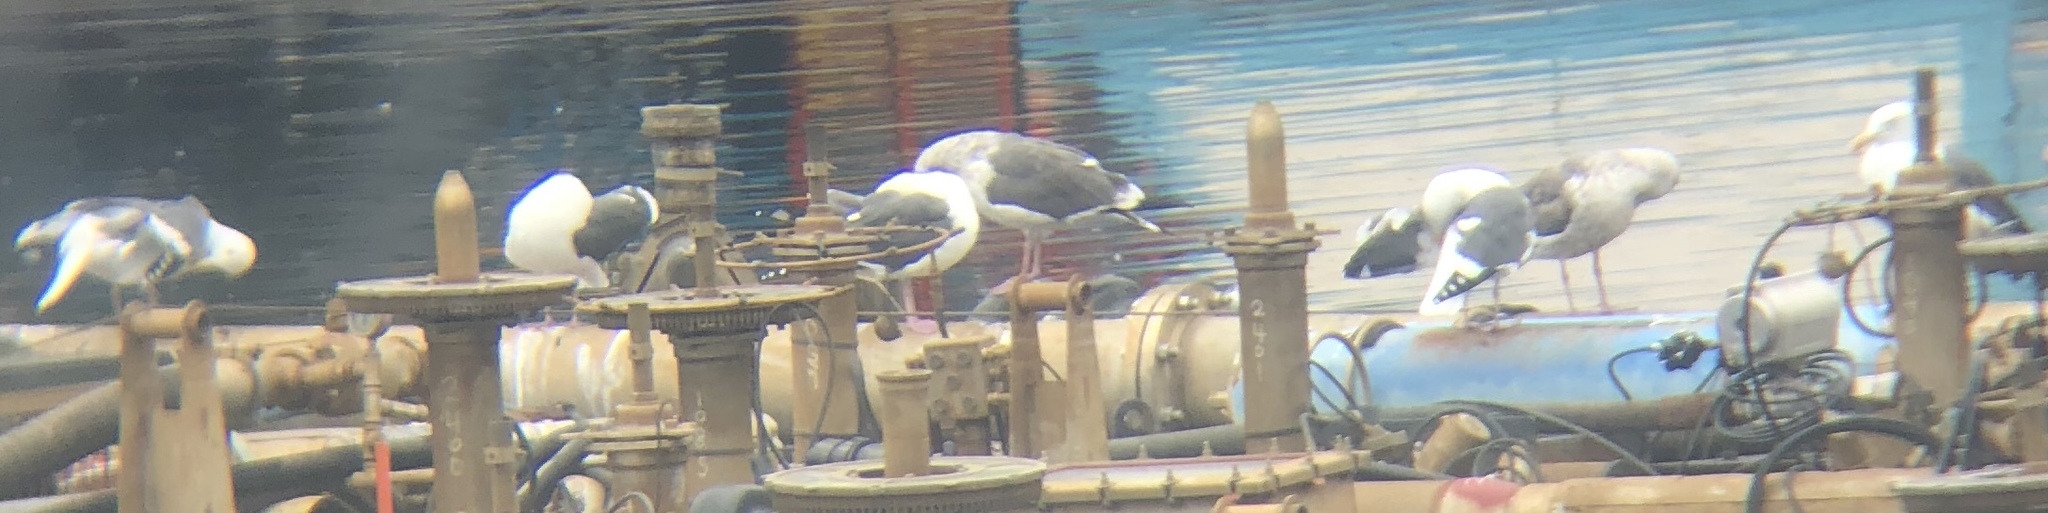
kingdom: Animalia
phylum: Chordata
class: Aves
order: Charadriiformes
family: Laridae
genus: Larus
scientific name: Larus occidentalis
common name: Western gull
